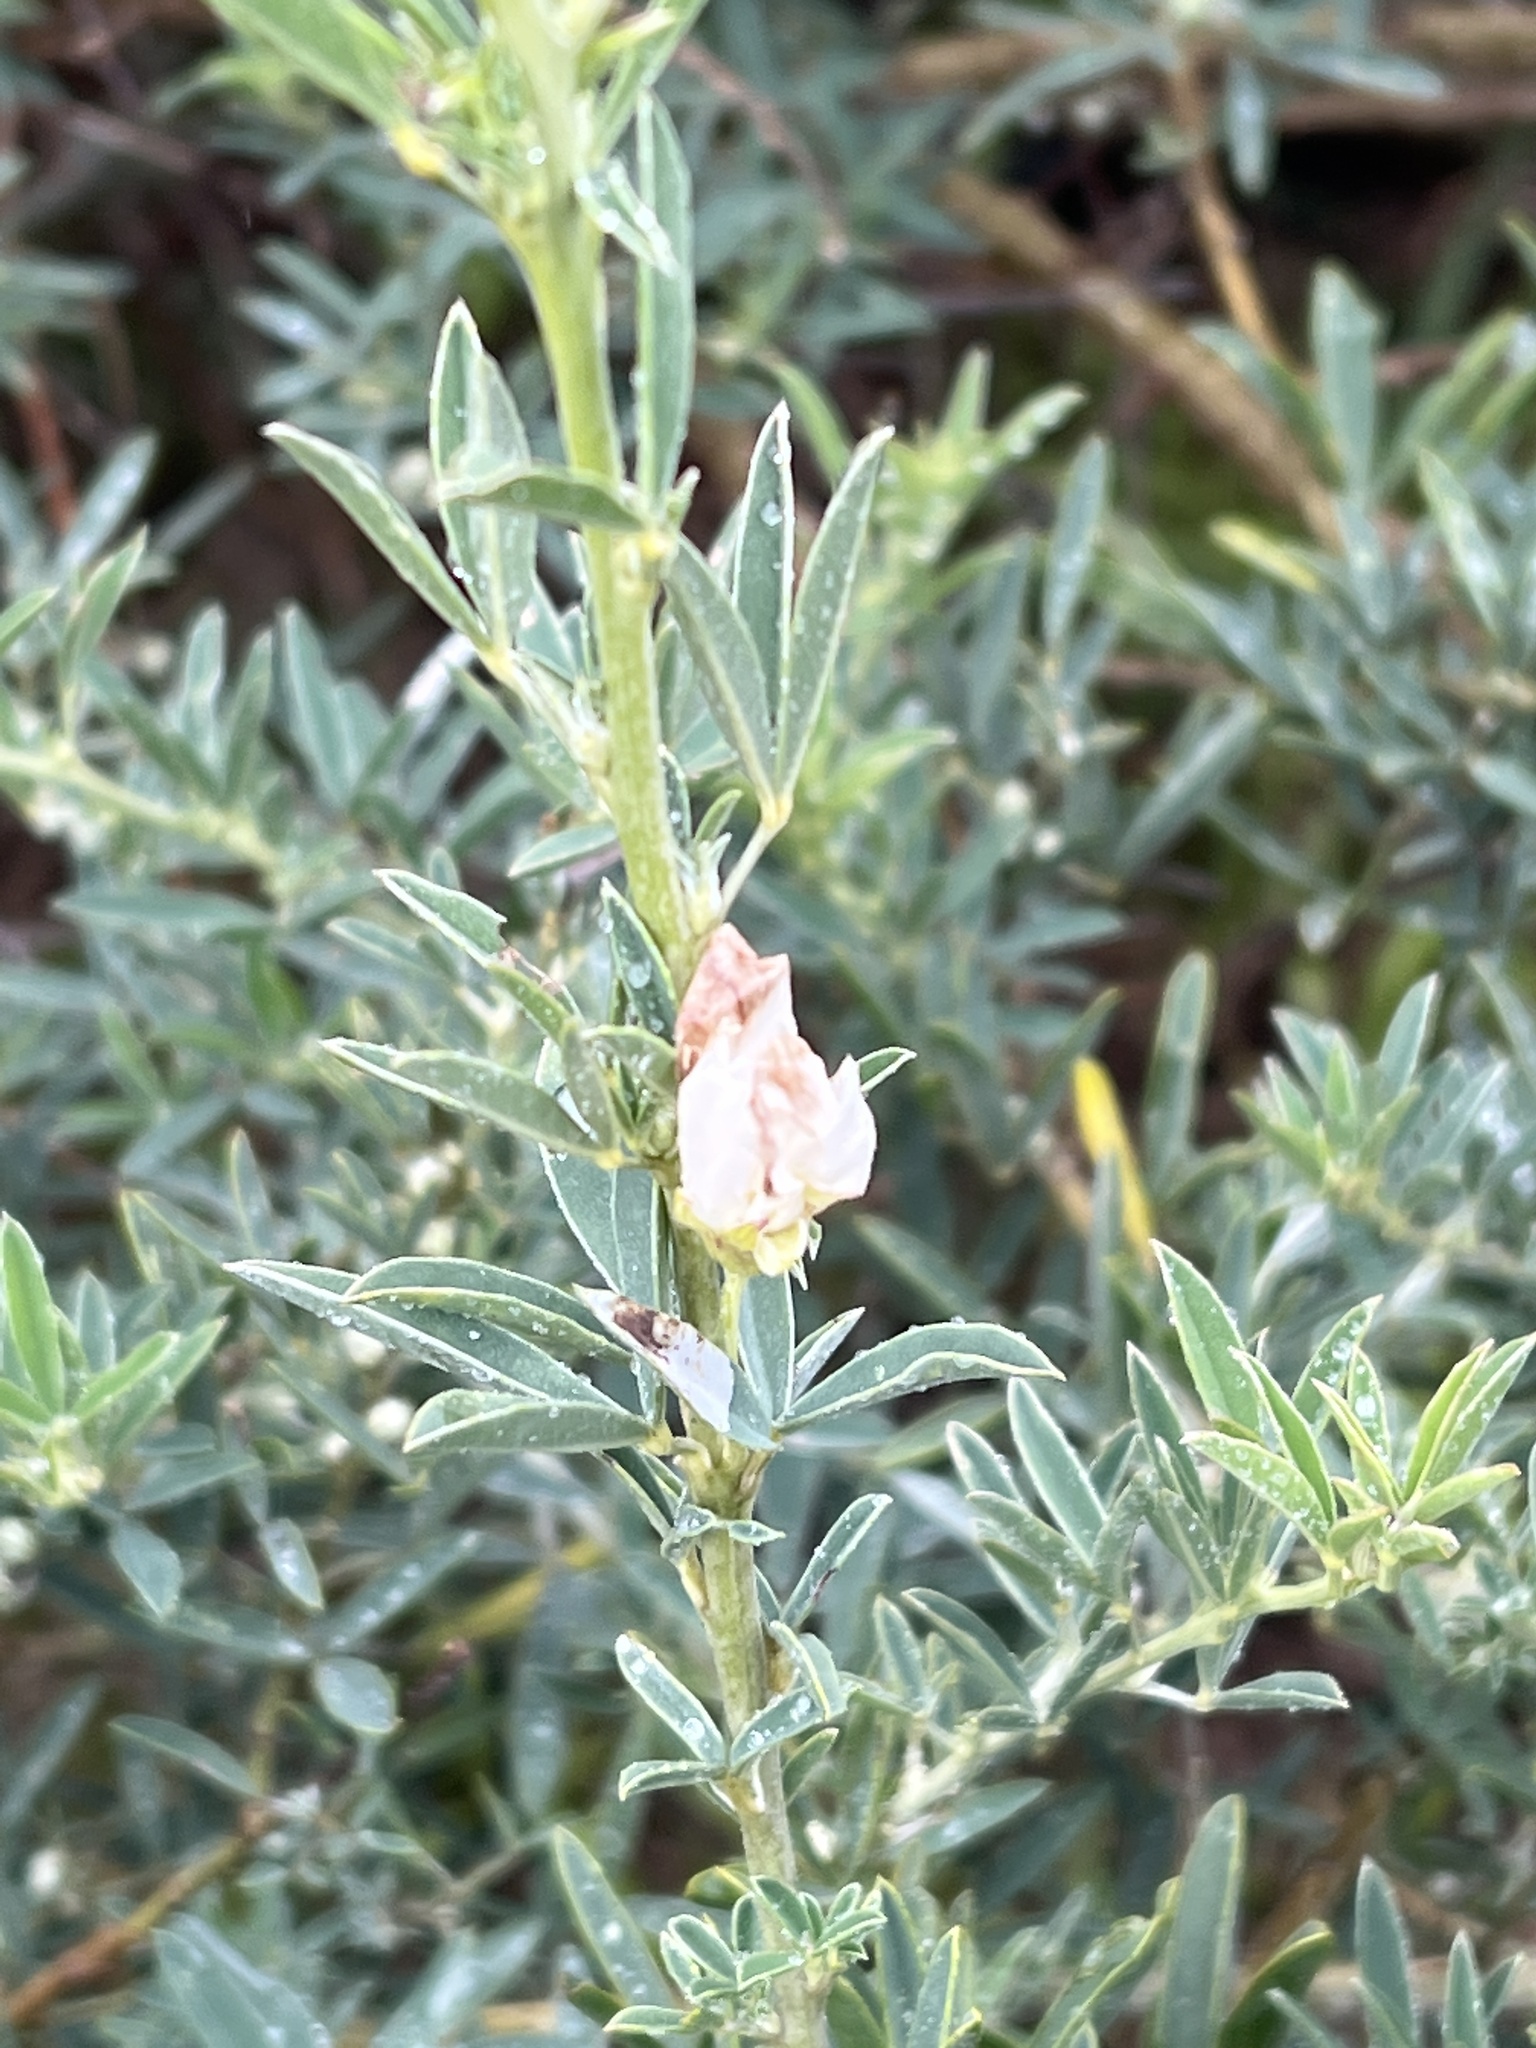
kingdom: Plantae
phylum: Tracheophyta
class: Magnoliopsida
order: Fabales
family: Fabaceae
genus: Chamaecytisus
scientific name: Chamaecytisus prolifer
